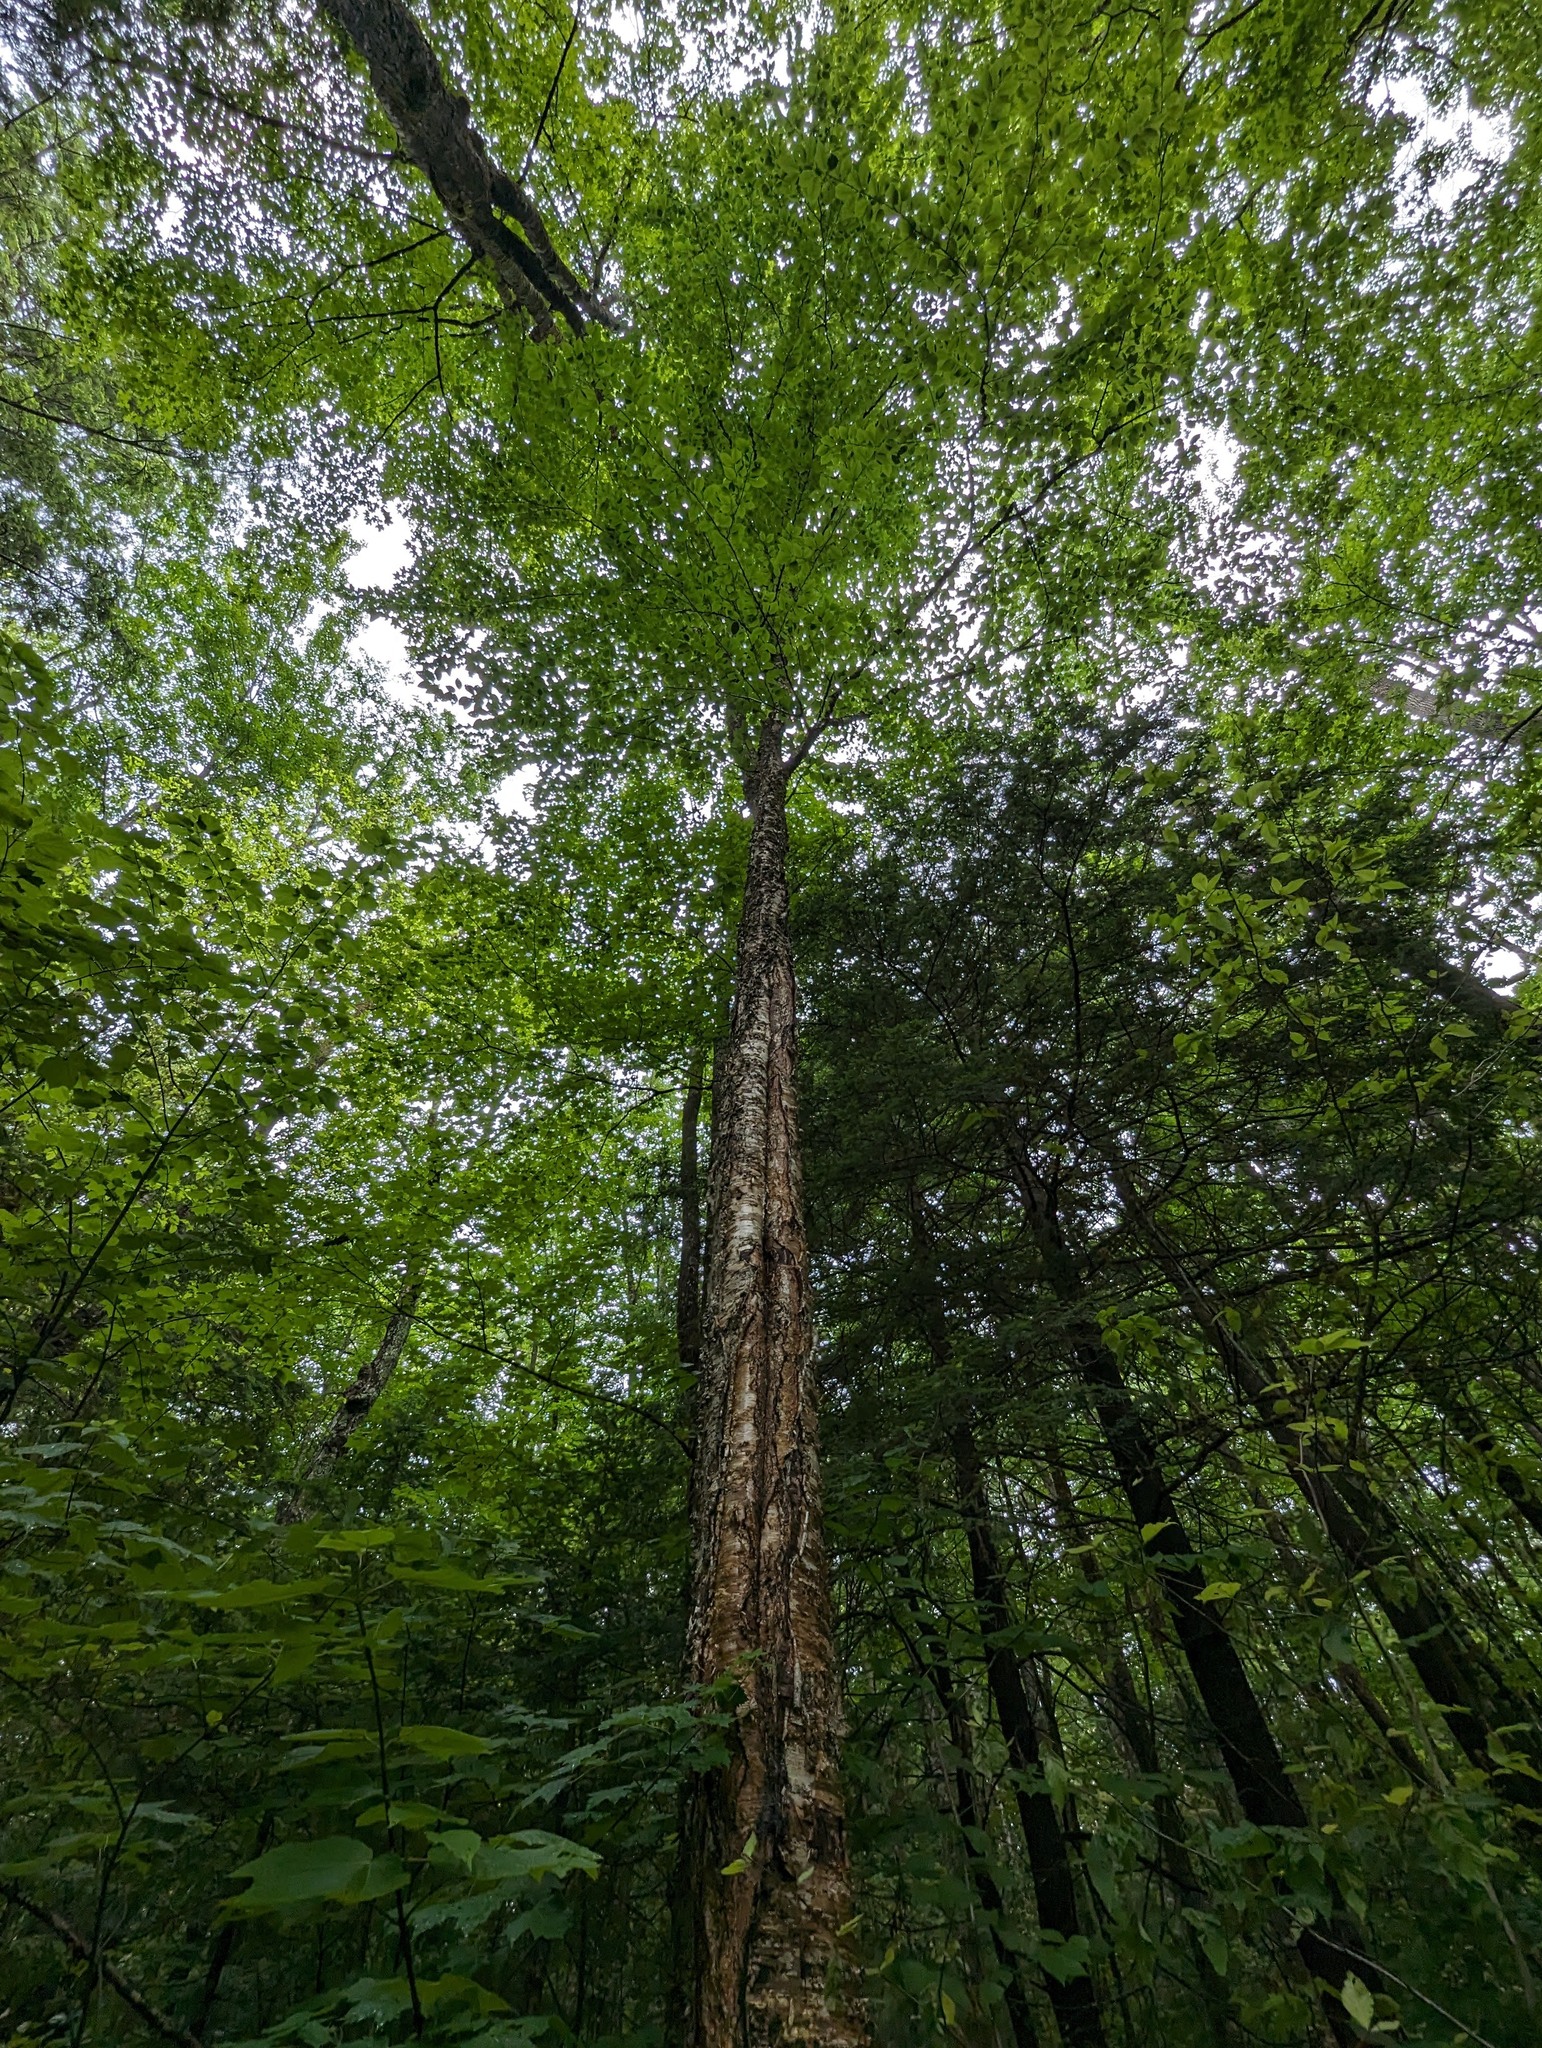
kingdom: Plantae
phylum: Tracheophyta
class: Magnoliopsida
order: Fagales
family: Betulaceae
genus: Betula
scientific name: Betula alleghaniensis
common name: Yellow birch
